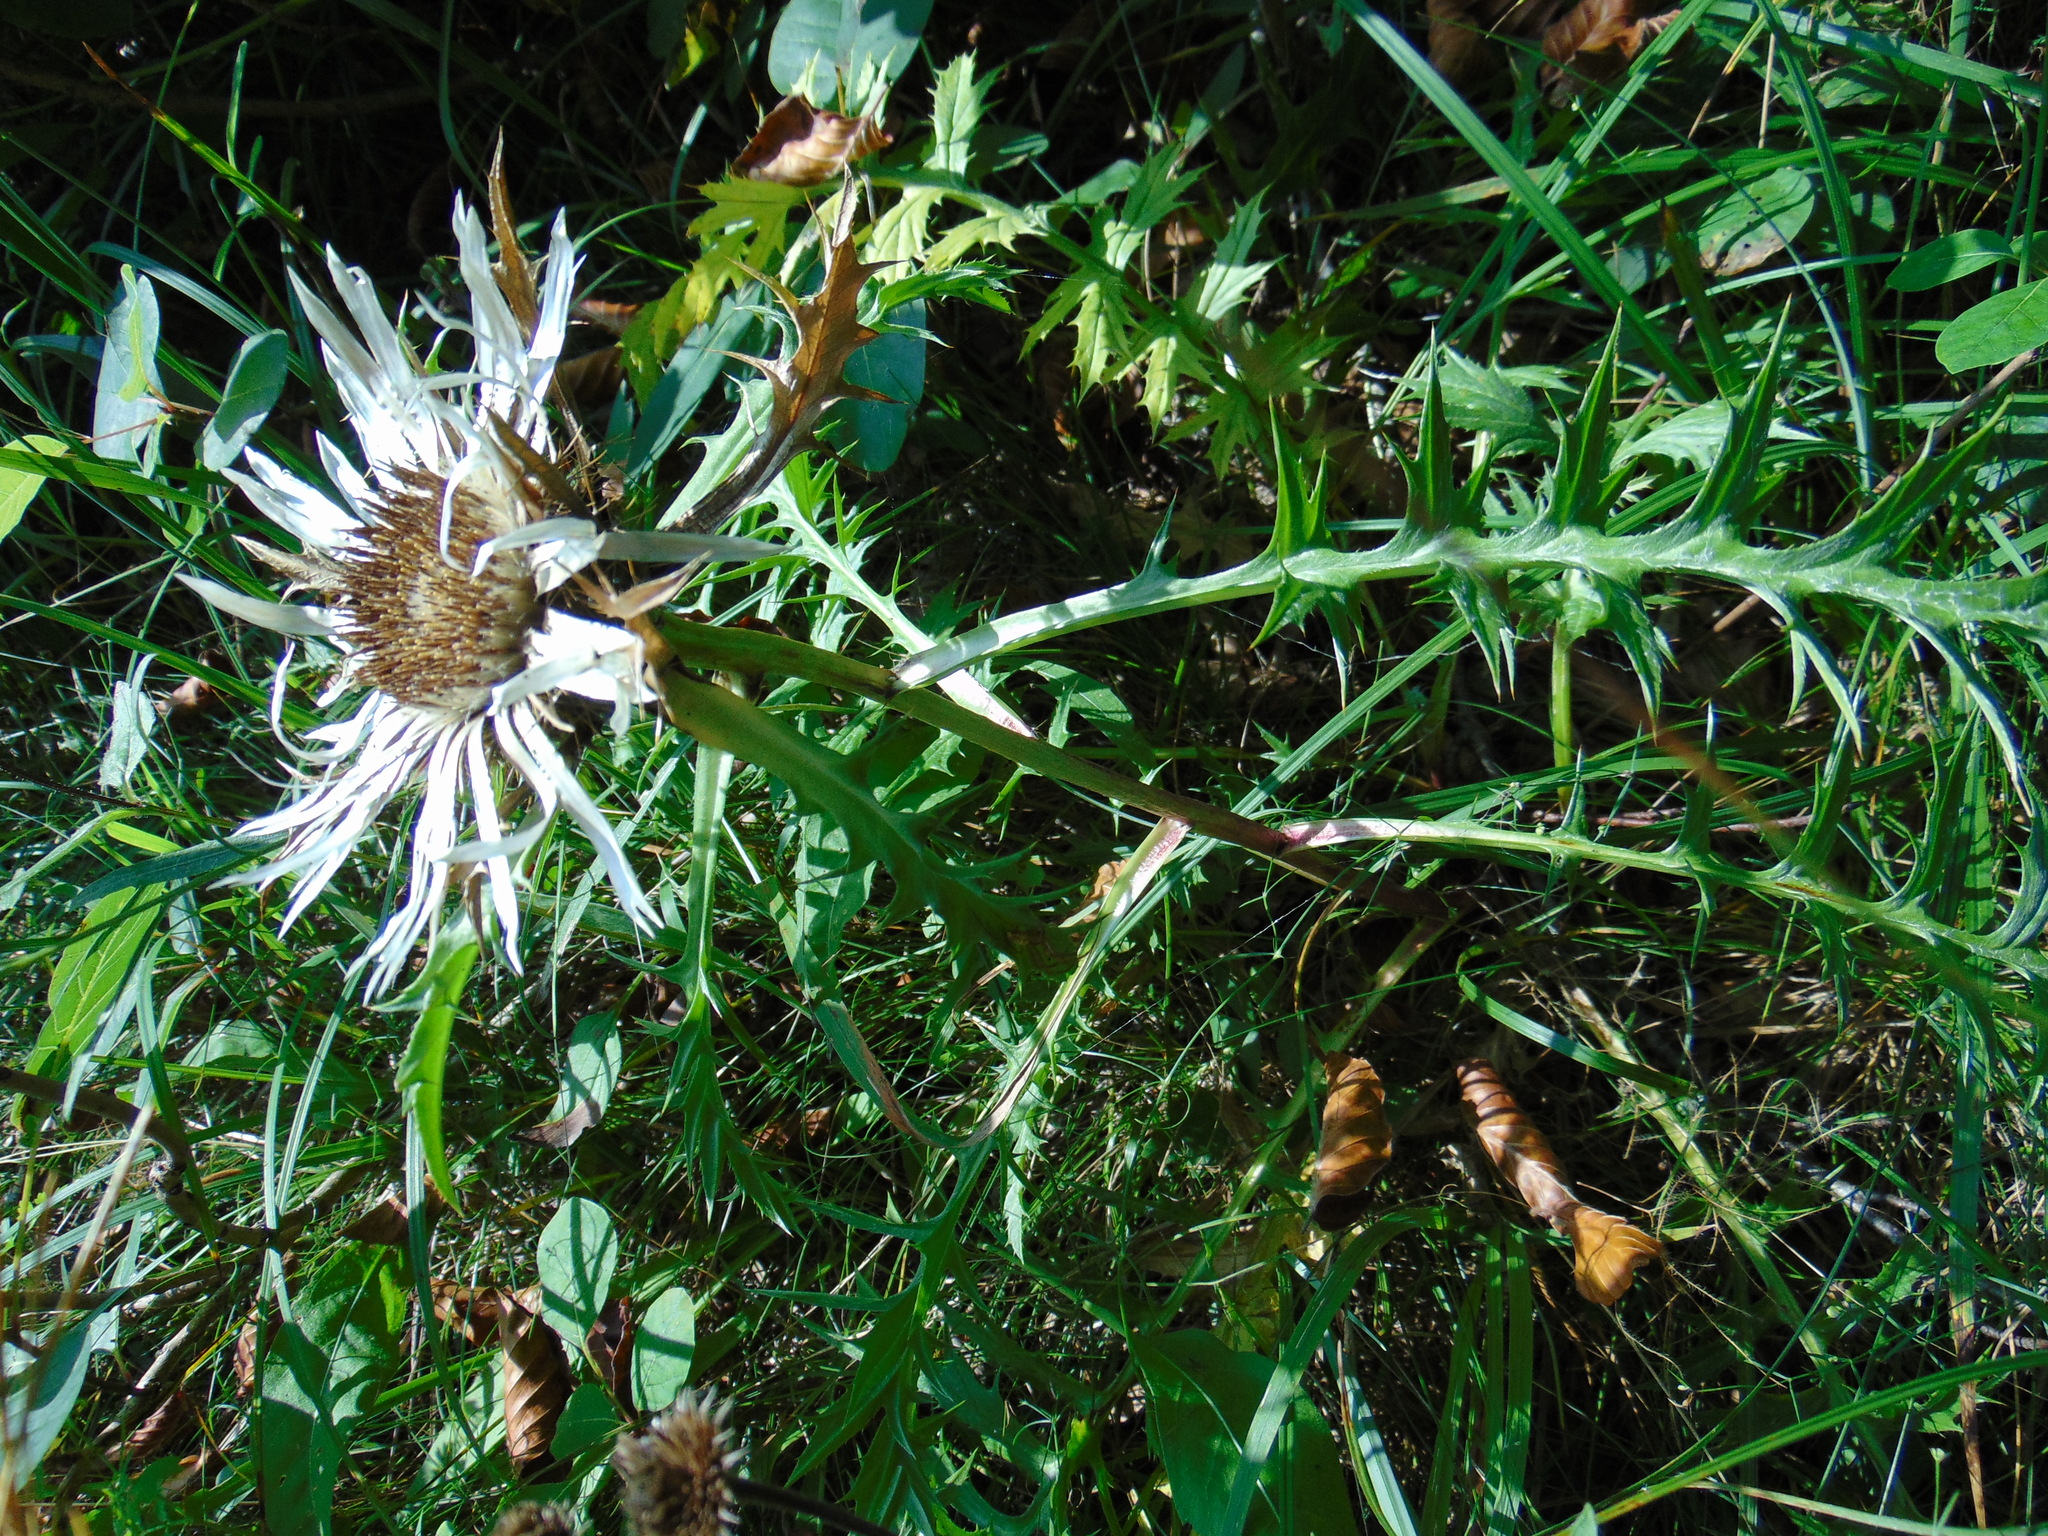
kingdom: Plantae
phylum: Tracheophyta
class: Magnoliopsida
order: Asterales
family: Asteraceae
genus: Carlina
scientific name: Carlina acaulis
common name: Stemless carline thistle
